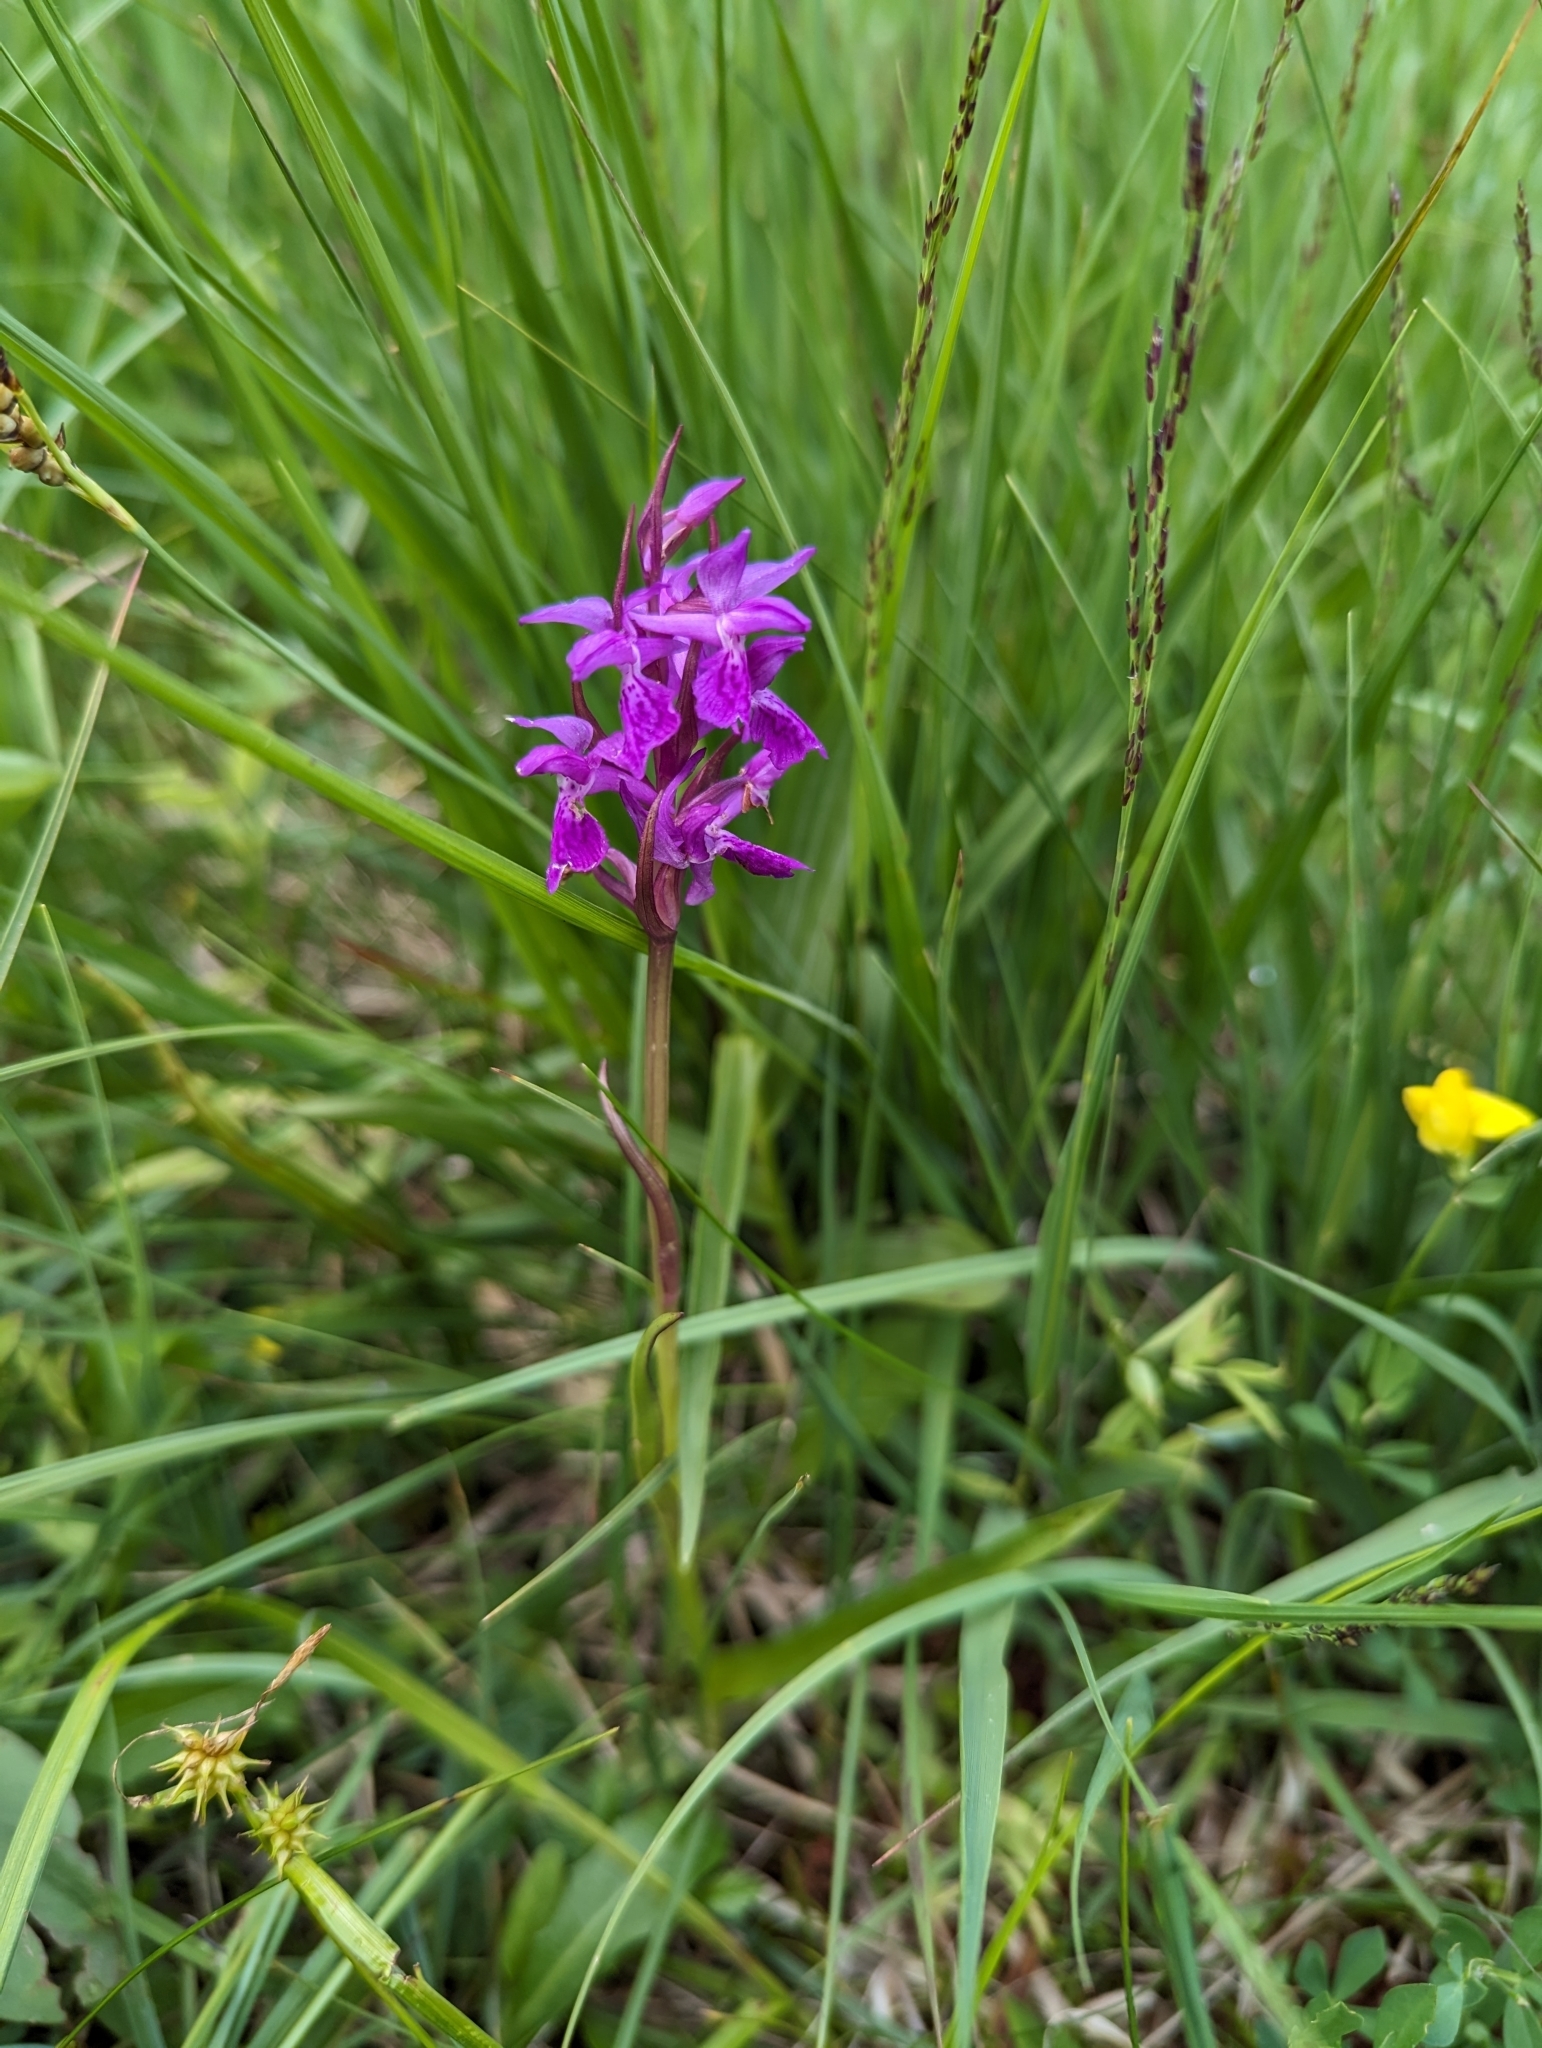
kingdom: Plantae
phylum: Tracheophyta
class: Liliopsida
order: Asparagales
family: Orchidaceae
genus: Dactylorhiza
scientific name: Dactylorhiza majalis
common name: Marsh orchid
